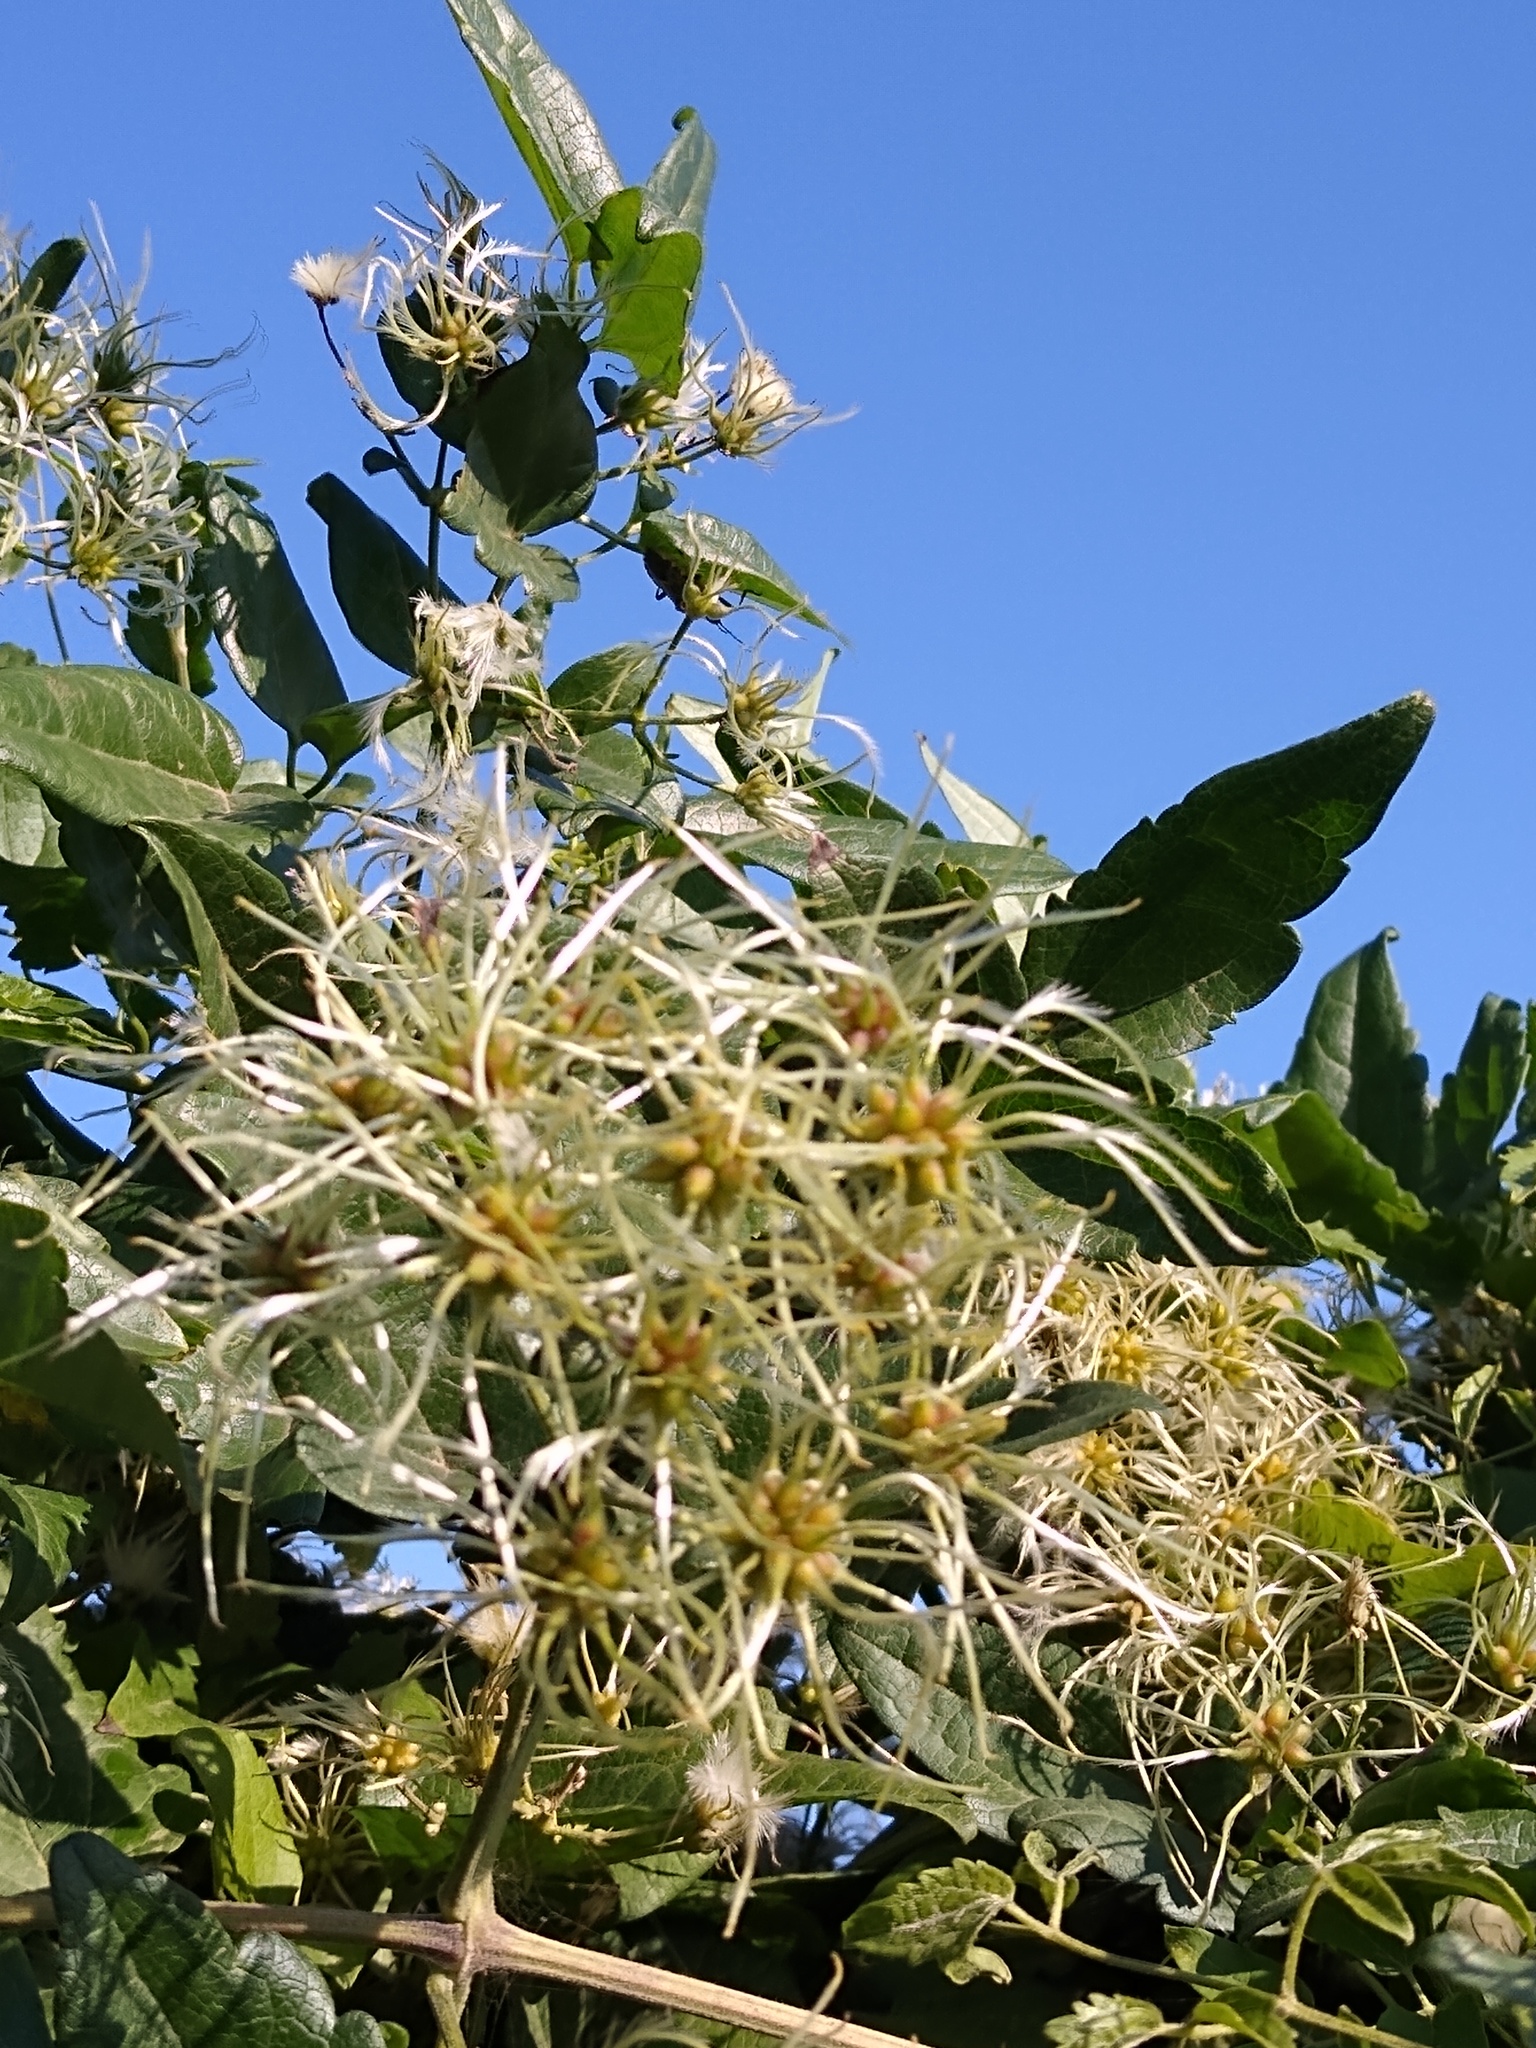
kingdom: Plantae
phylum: Tracheophyta
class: Magnoliopsida
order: Ranunculales
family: Ranunculaceae
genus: Clematis
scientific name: Clematis vitalba
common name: Evergreen clematis
